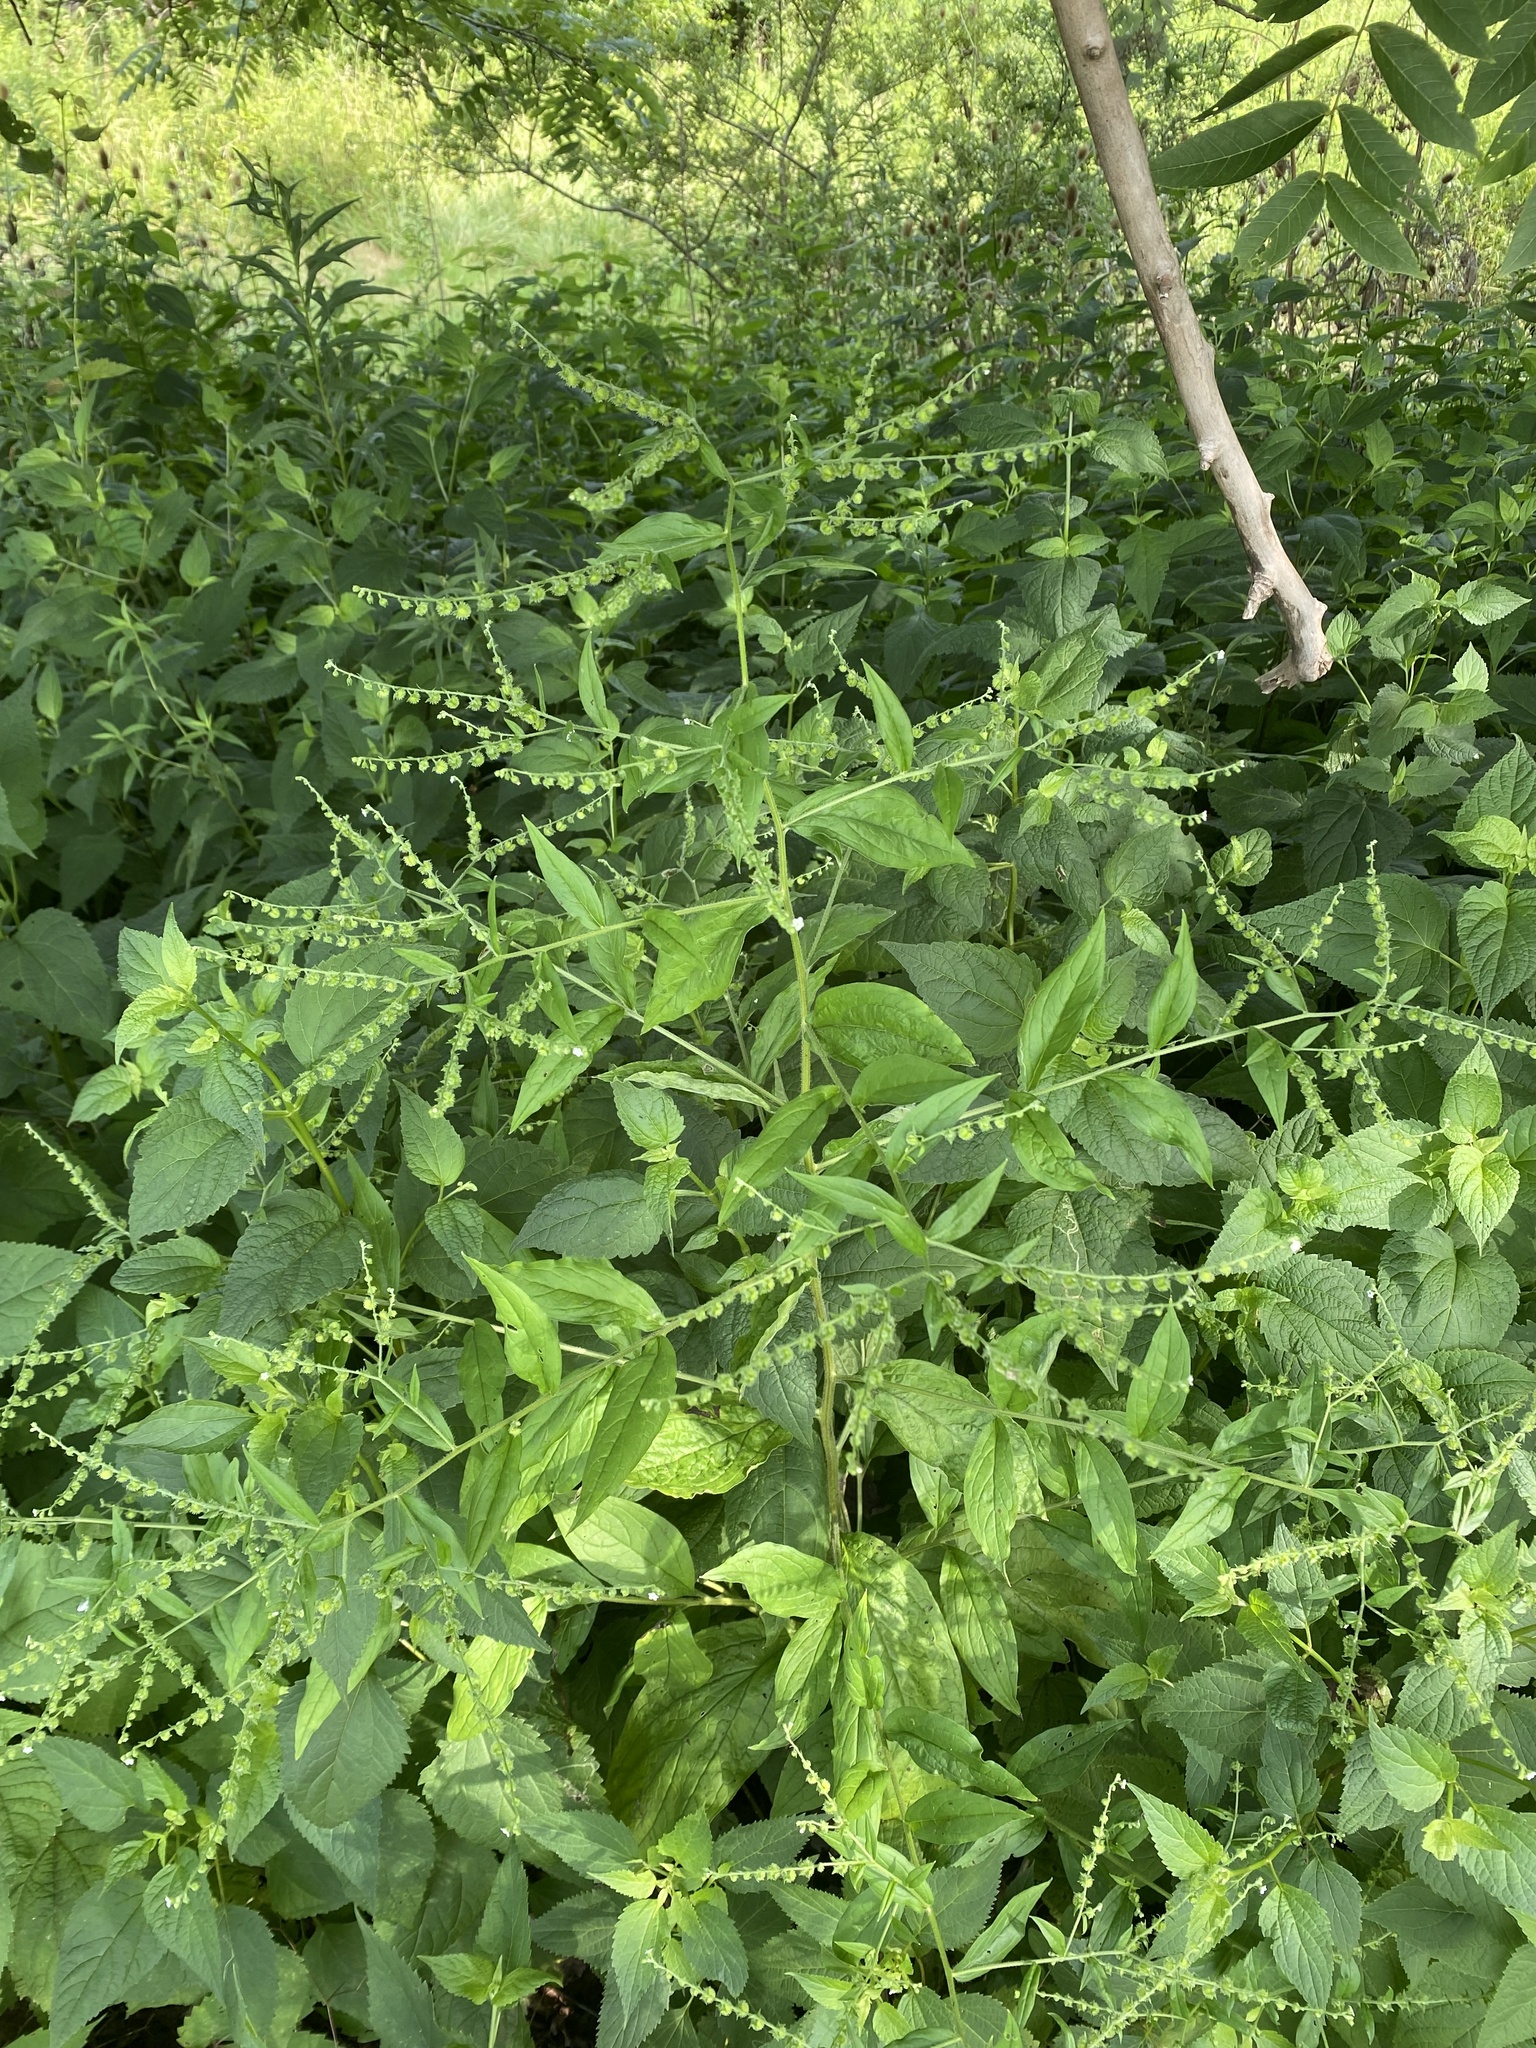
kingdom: Plantae
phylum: Tracheophyta
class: Magnoliopsida
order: Boraginales
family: Boraginaceae
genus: Hackelia
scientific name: Hackelia virginiana
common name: Beggar's-lice
